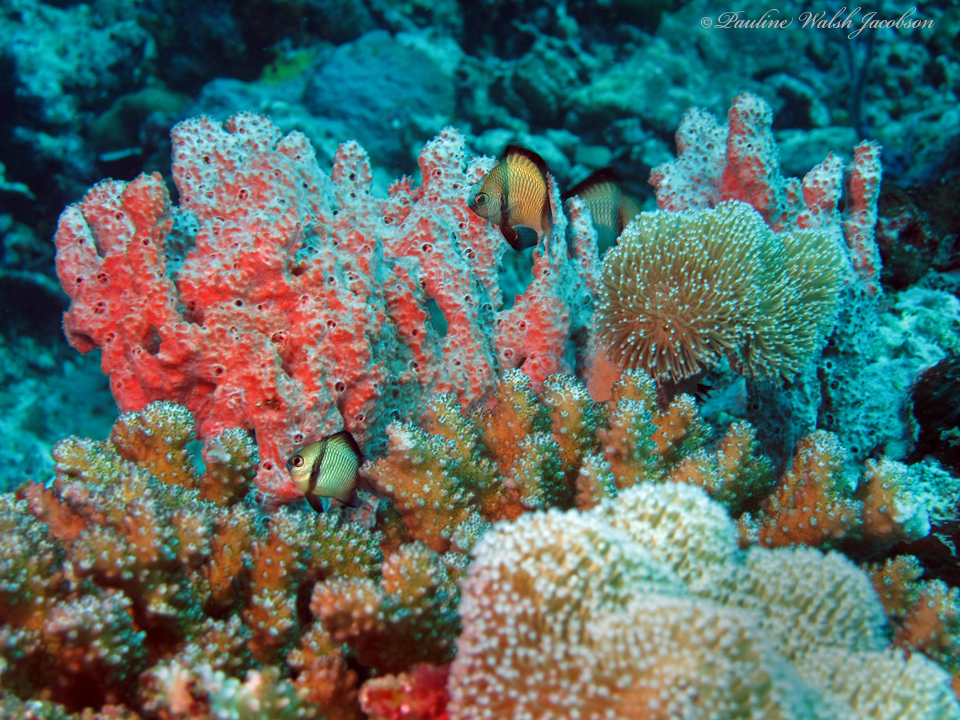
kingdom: Animalia
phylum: Chordata
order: Perciformes
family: Pomacentridae
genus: Dascyllus
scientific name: Dascyllus reticulatus
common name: Reticulated dascyllus
